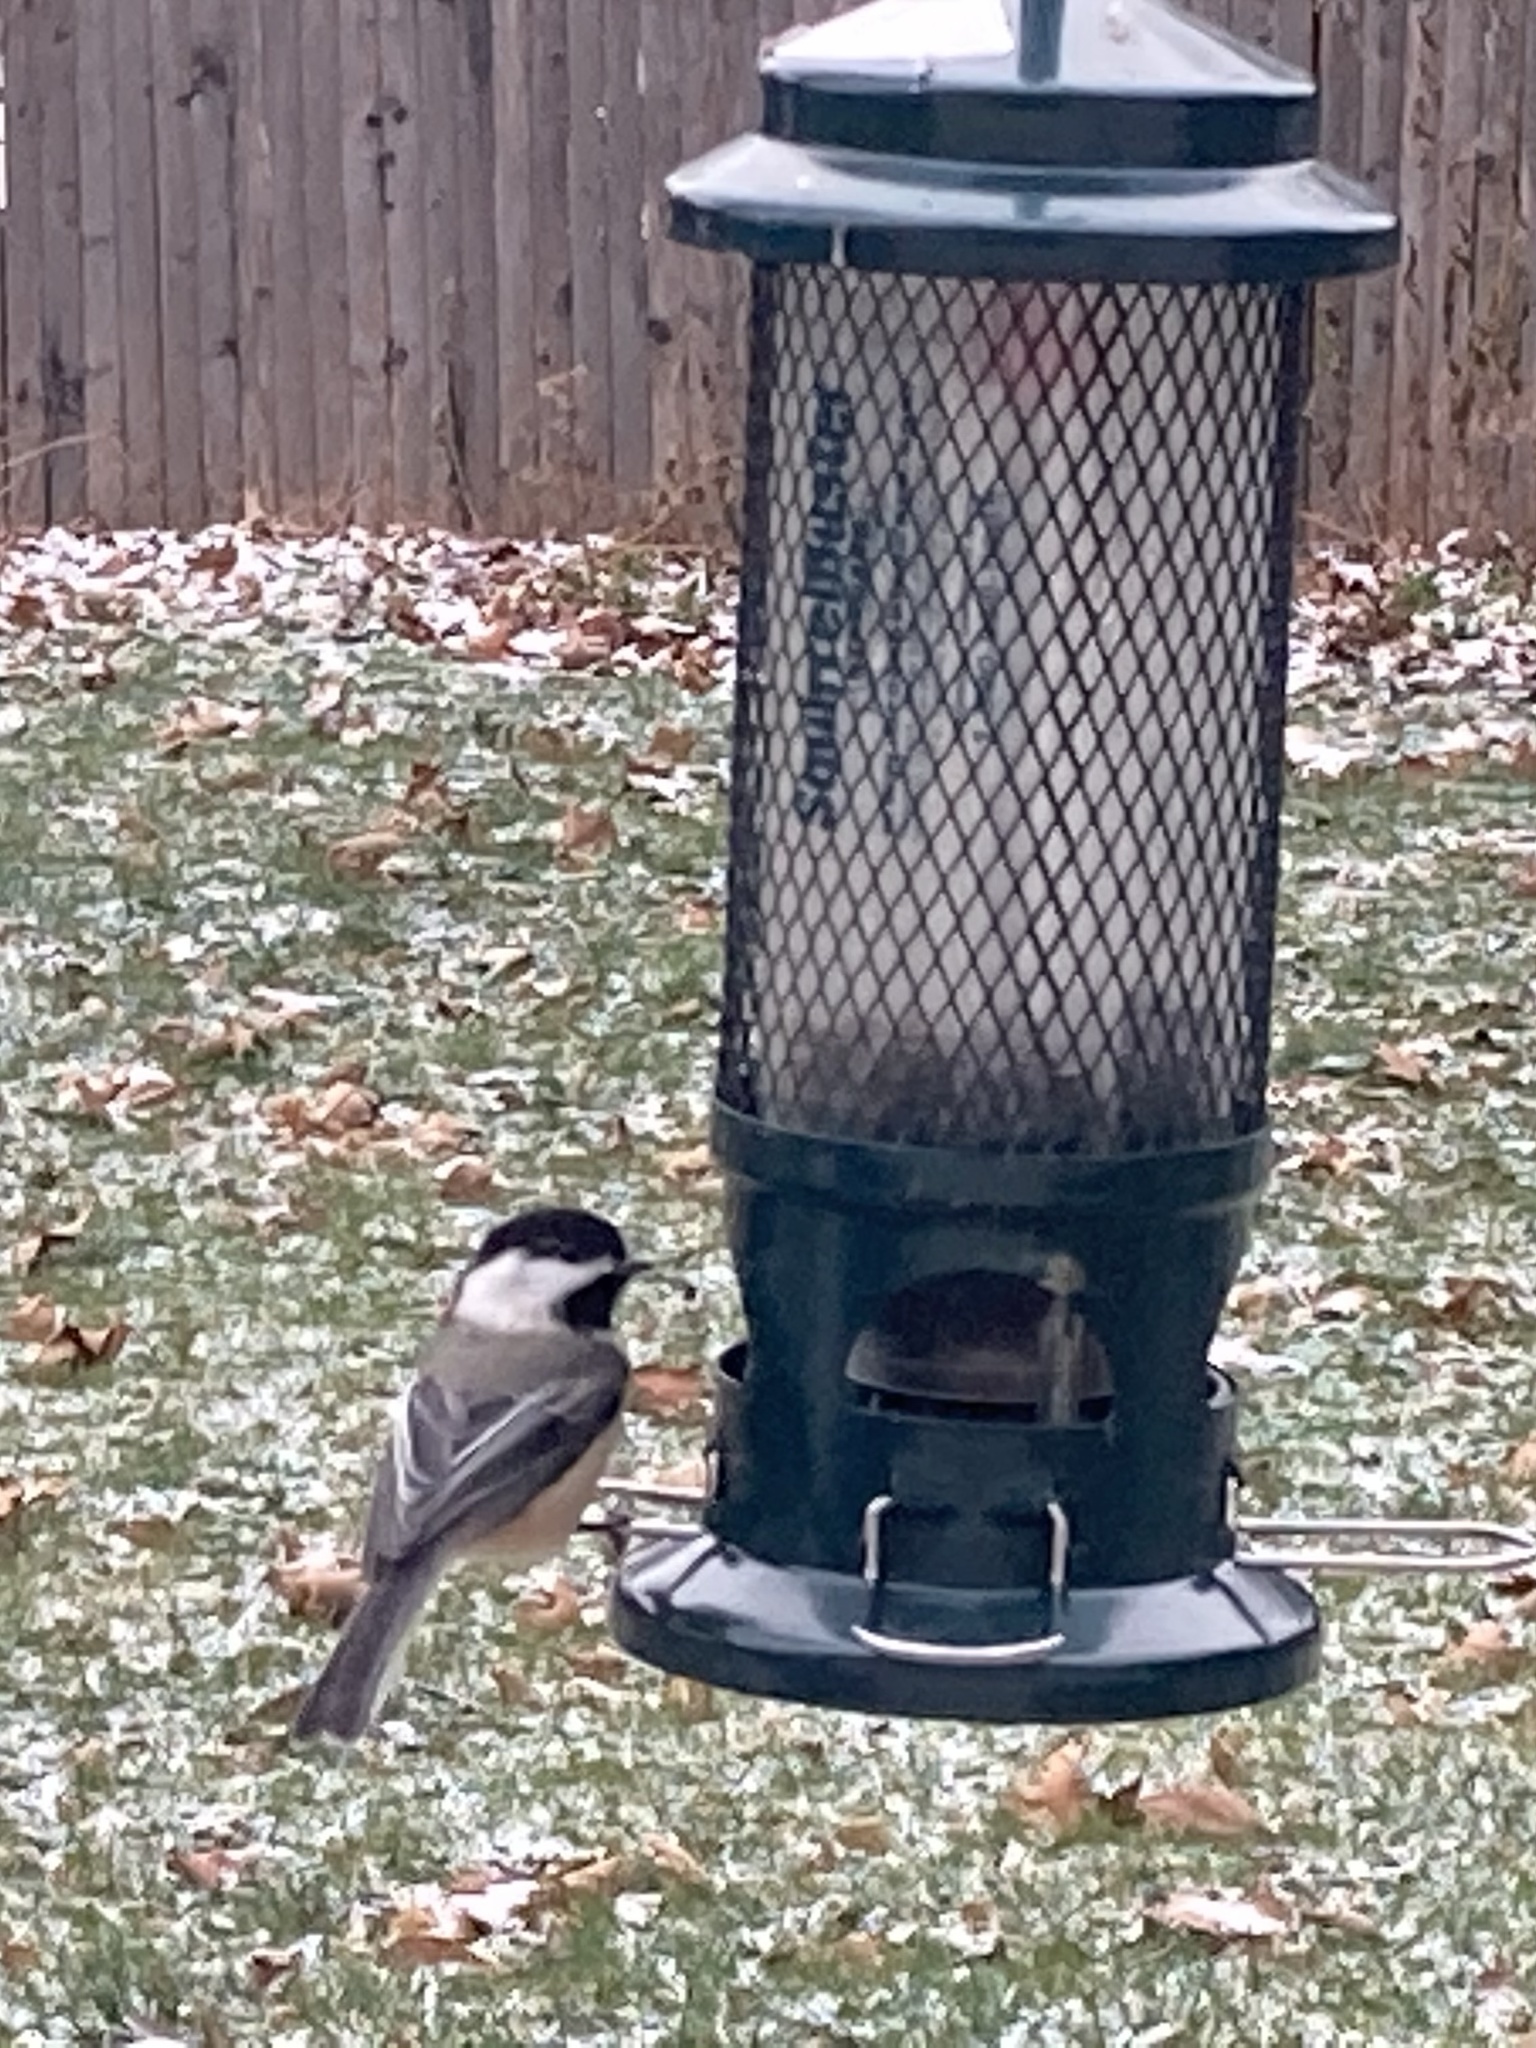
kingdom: Animalia
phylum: Chordata
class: Aves
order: Passeriformes
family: Paridae
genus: Poecile
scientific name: Poecile atricapillus
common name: Black-capped chickadee
